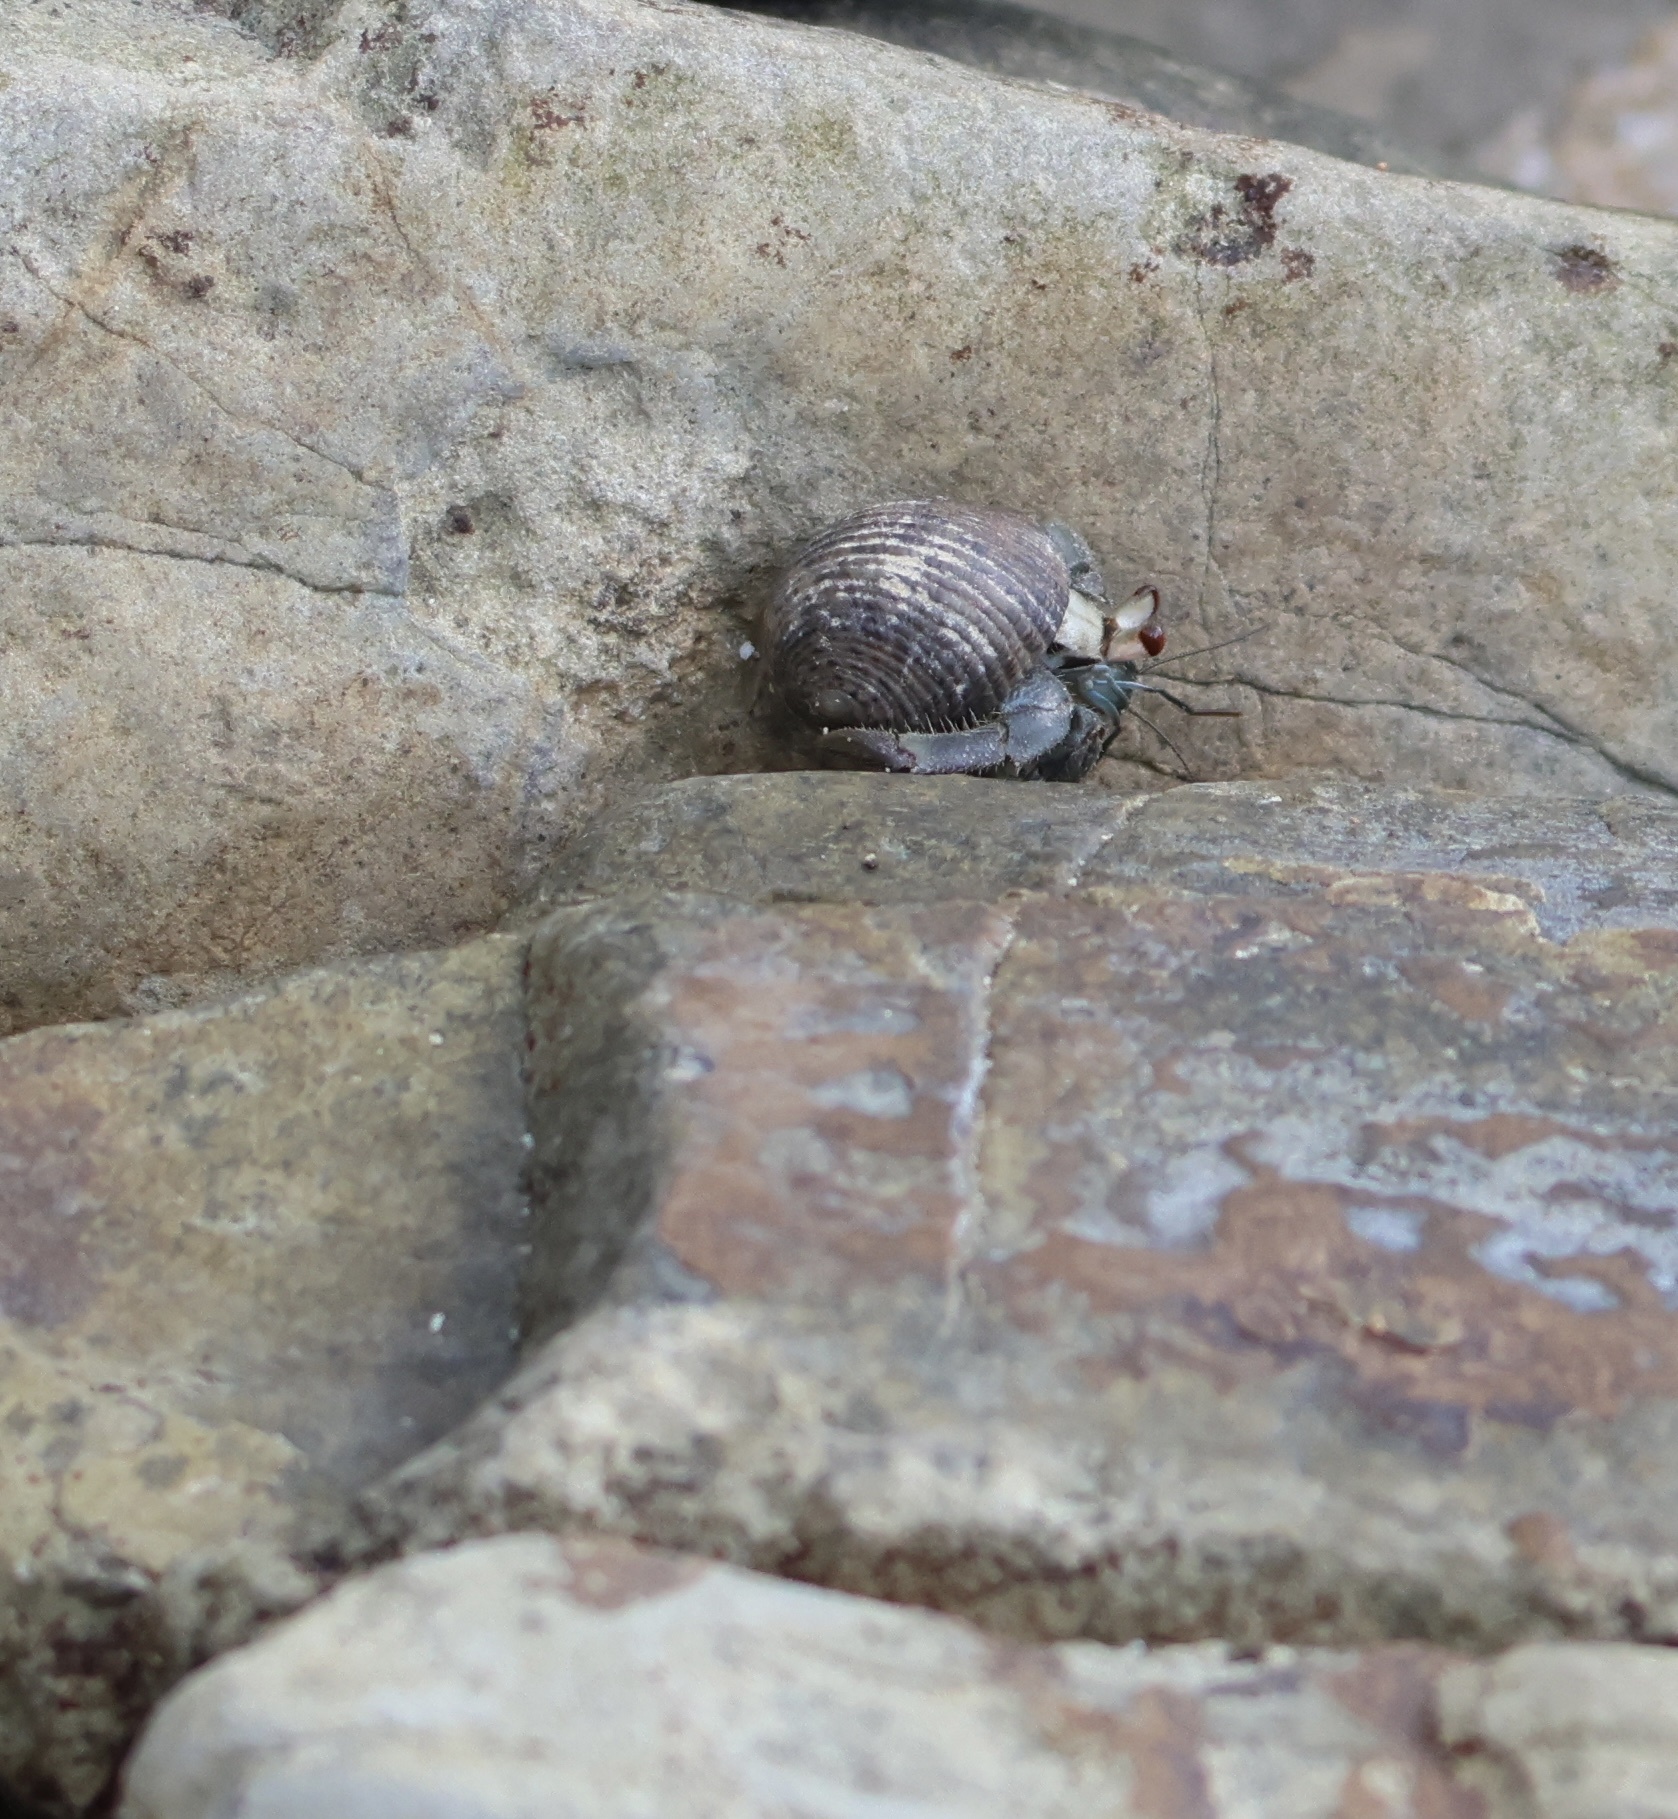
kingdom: Animalia
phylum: Arthropoda
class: Malacostraca
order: Decapoda
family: Coenobitidae
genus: Coenobita
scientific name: Coenobita compressus
